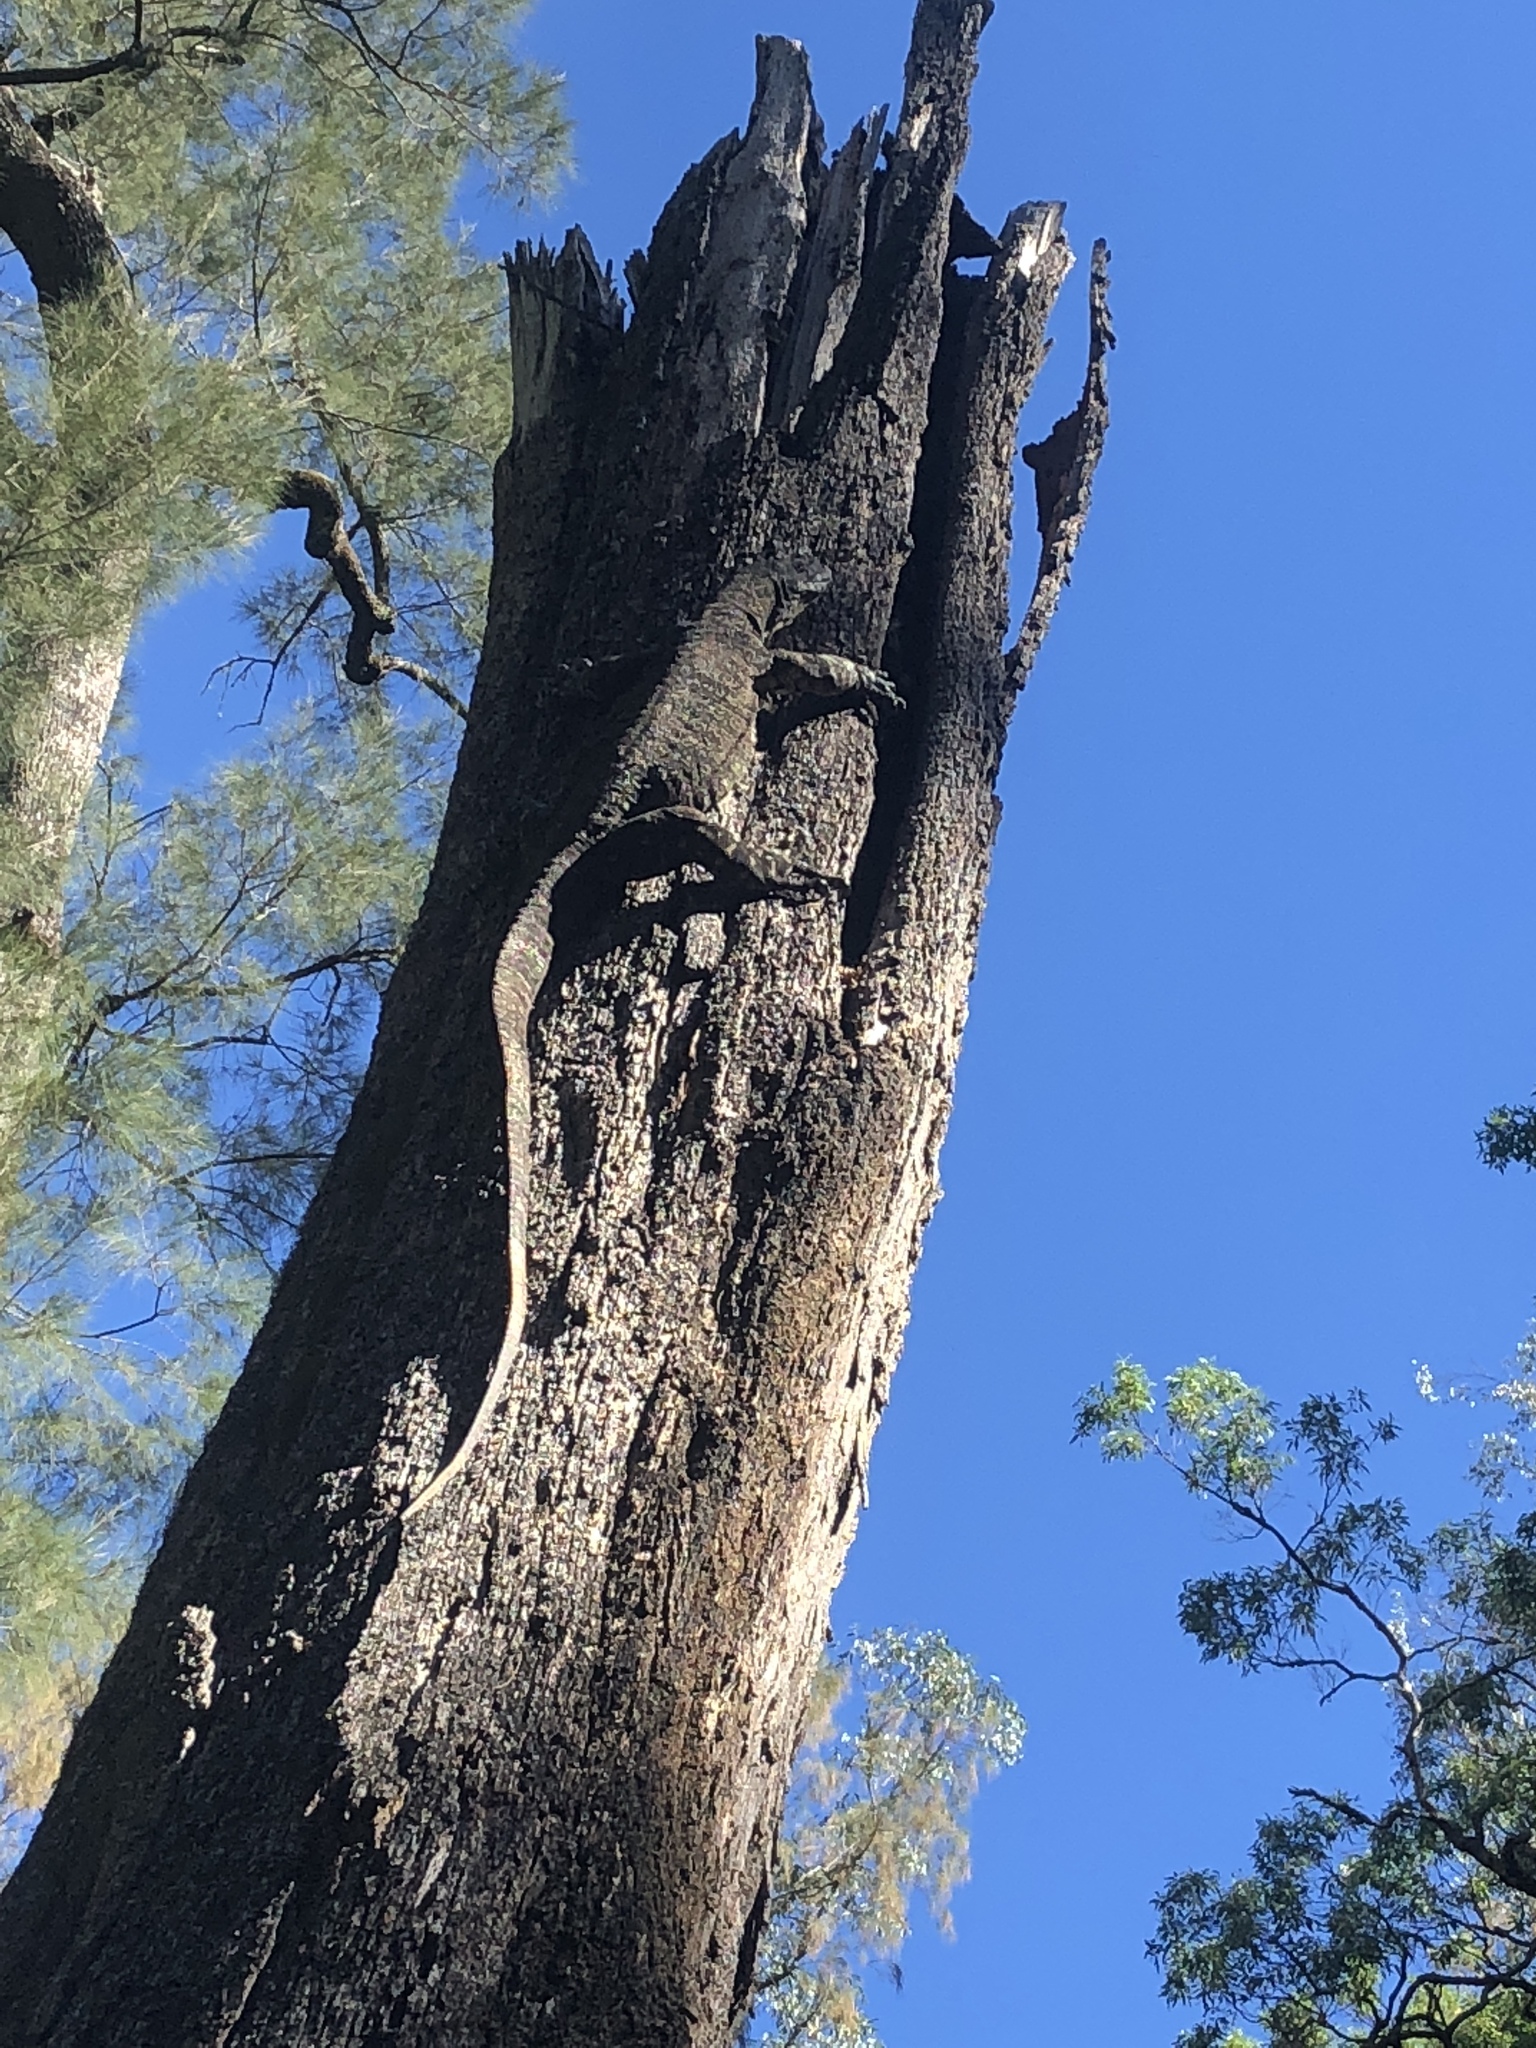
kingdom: Animalia
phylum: Chordata
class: Squamata
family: Varanidae
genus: Varanus
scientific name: Varanus varius
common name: Lace monitor
